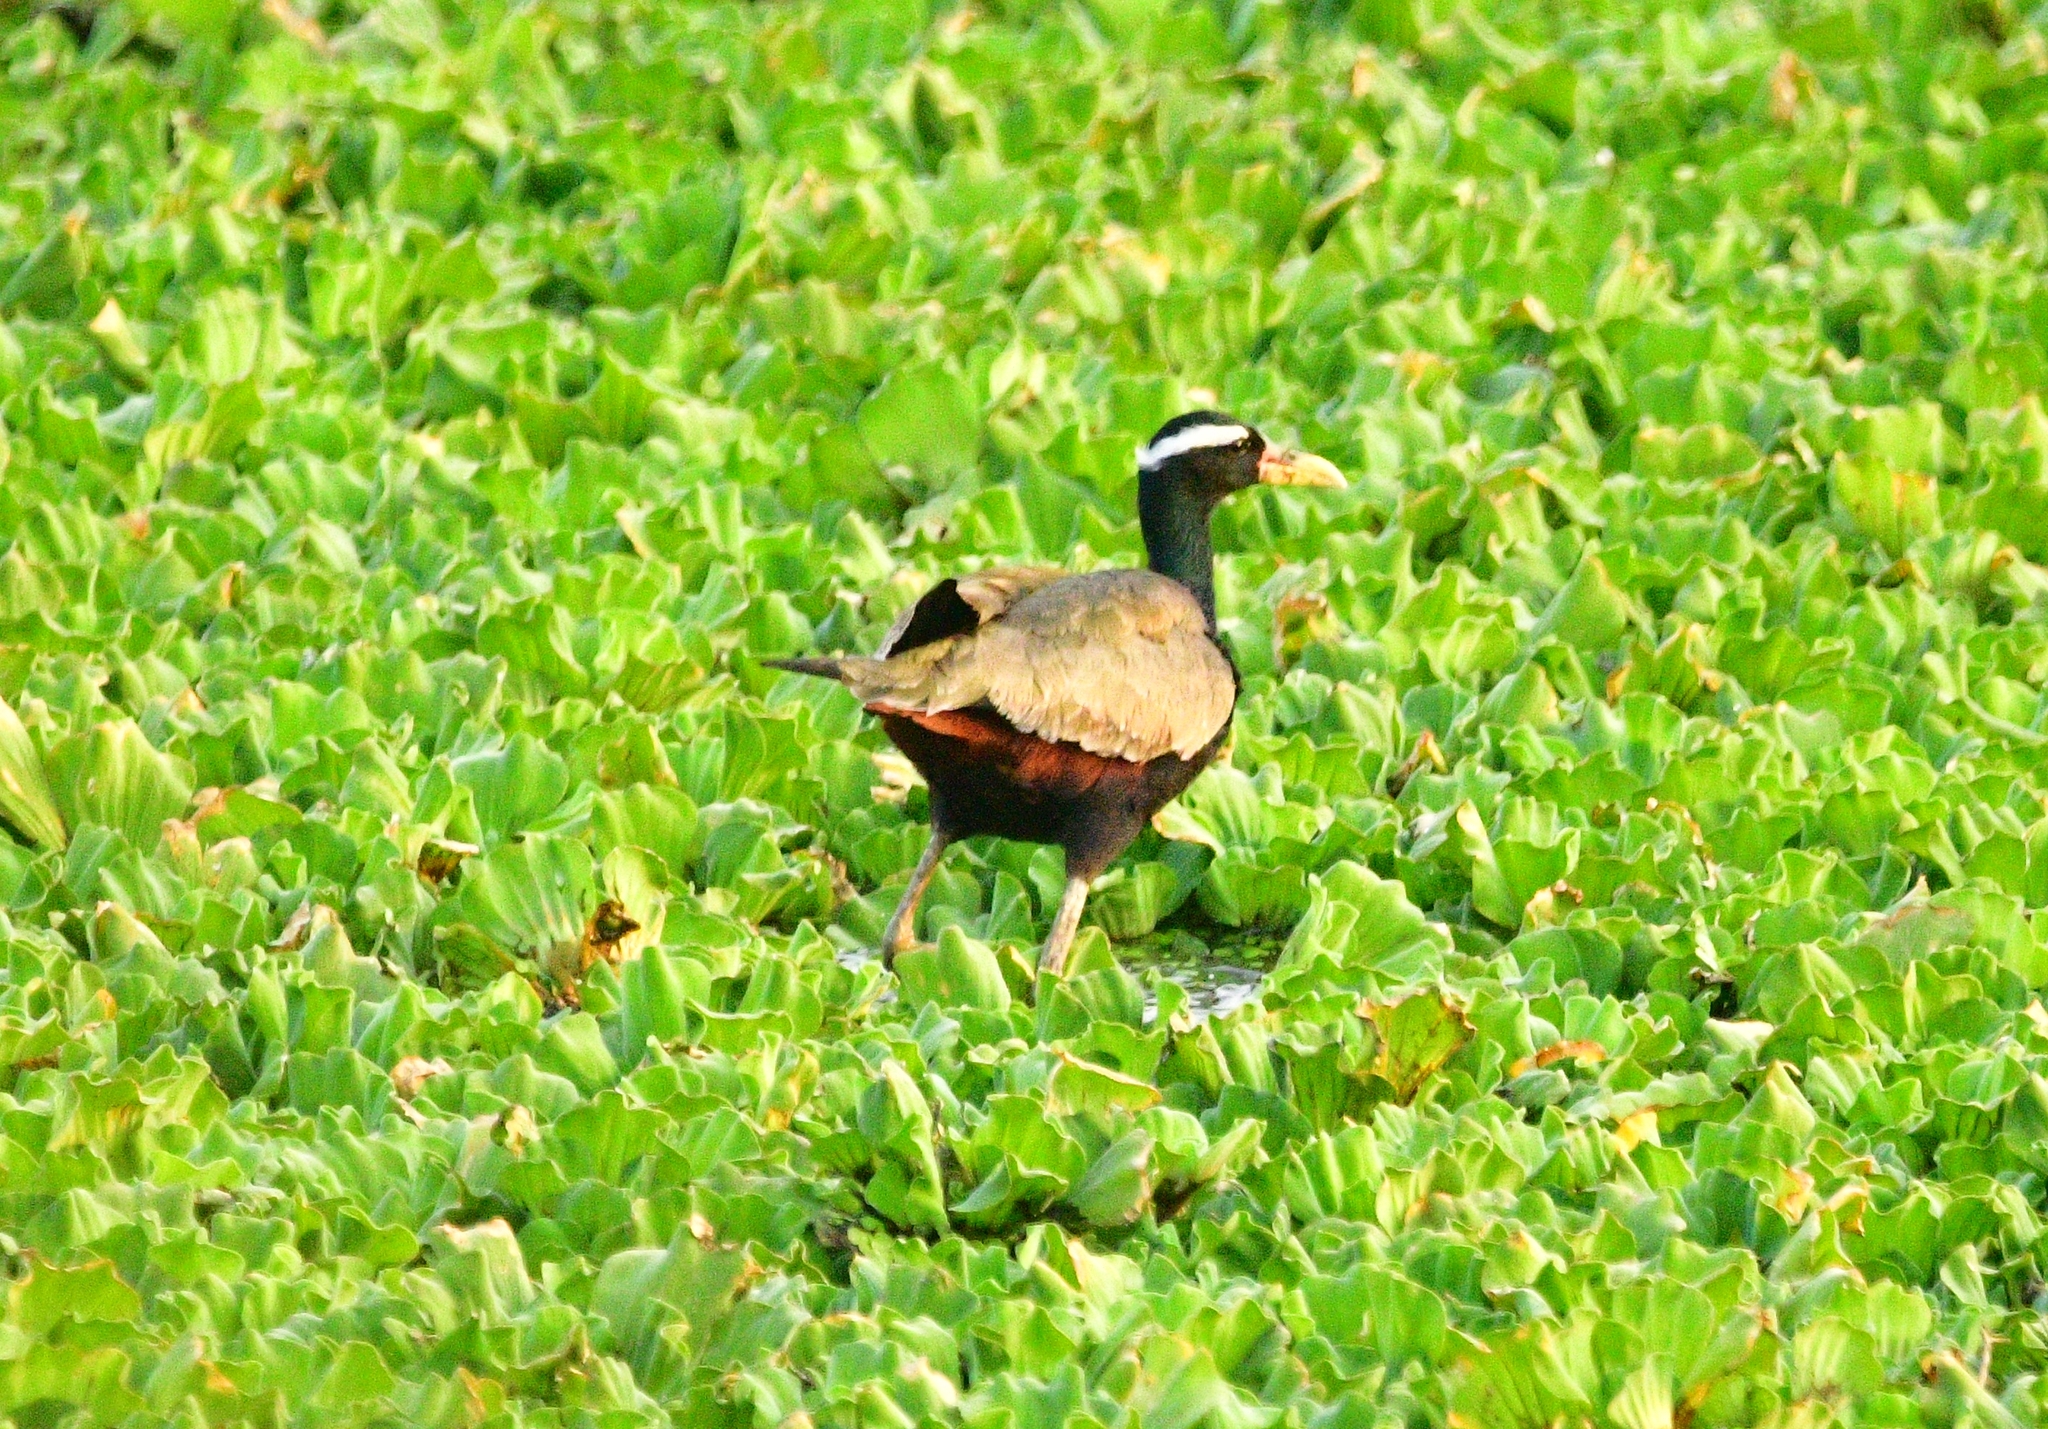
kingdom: Animalia
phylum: Chordata
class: Aves
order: Charadriiformes
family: Jacanidae
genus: Metopidius
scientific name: Metopidius indicus
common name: Bronze-winged jacana
